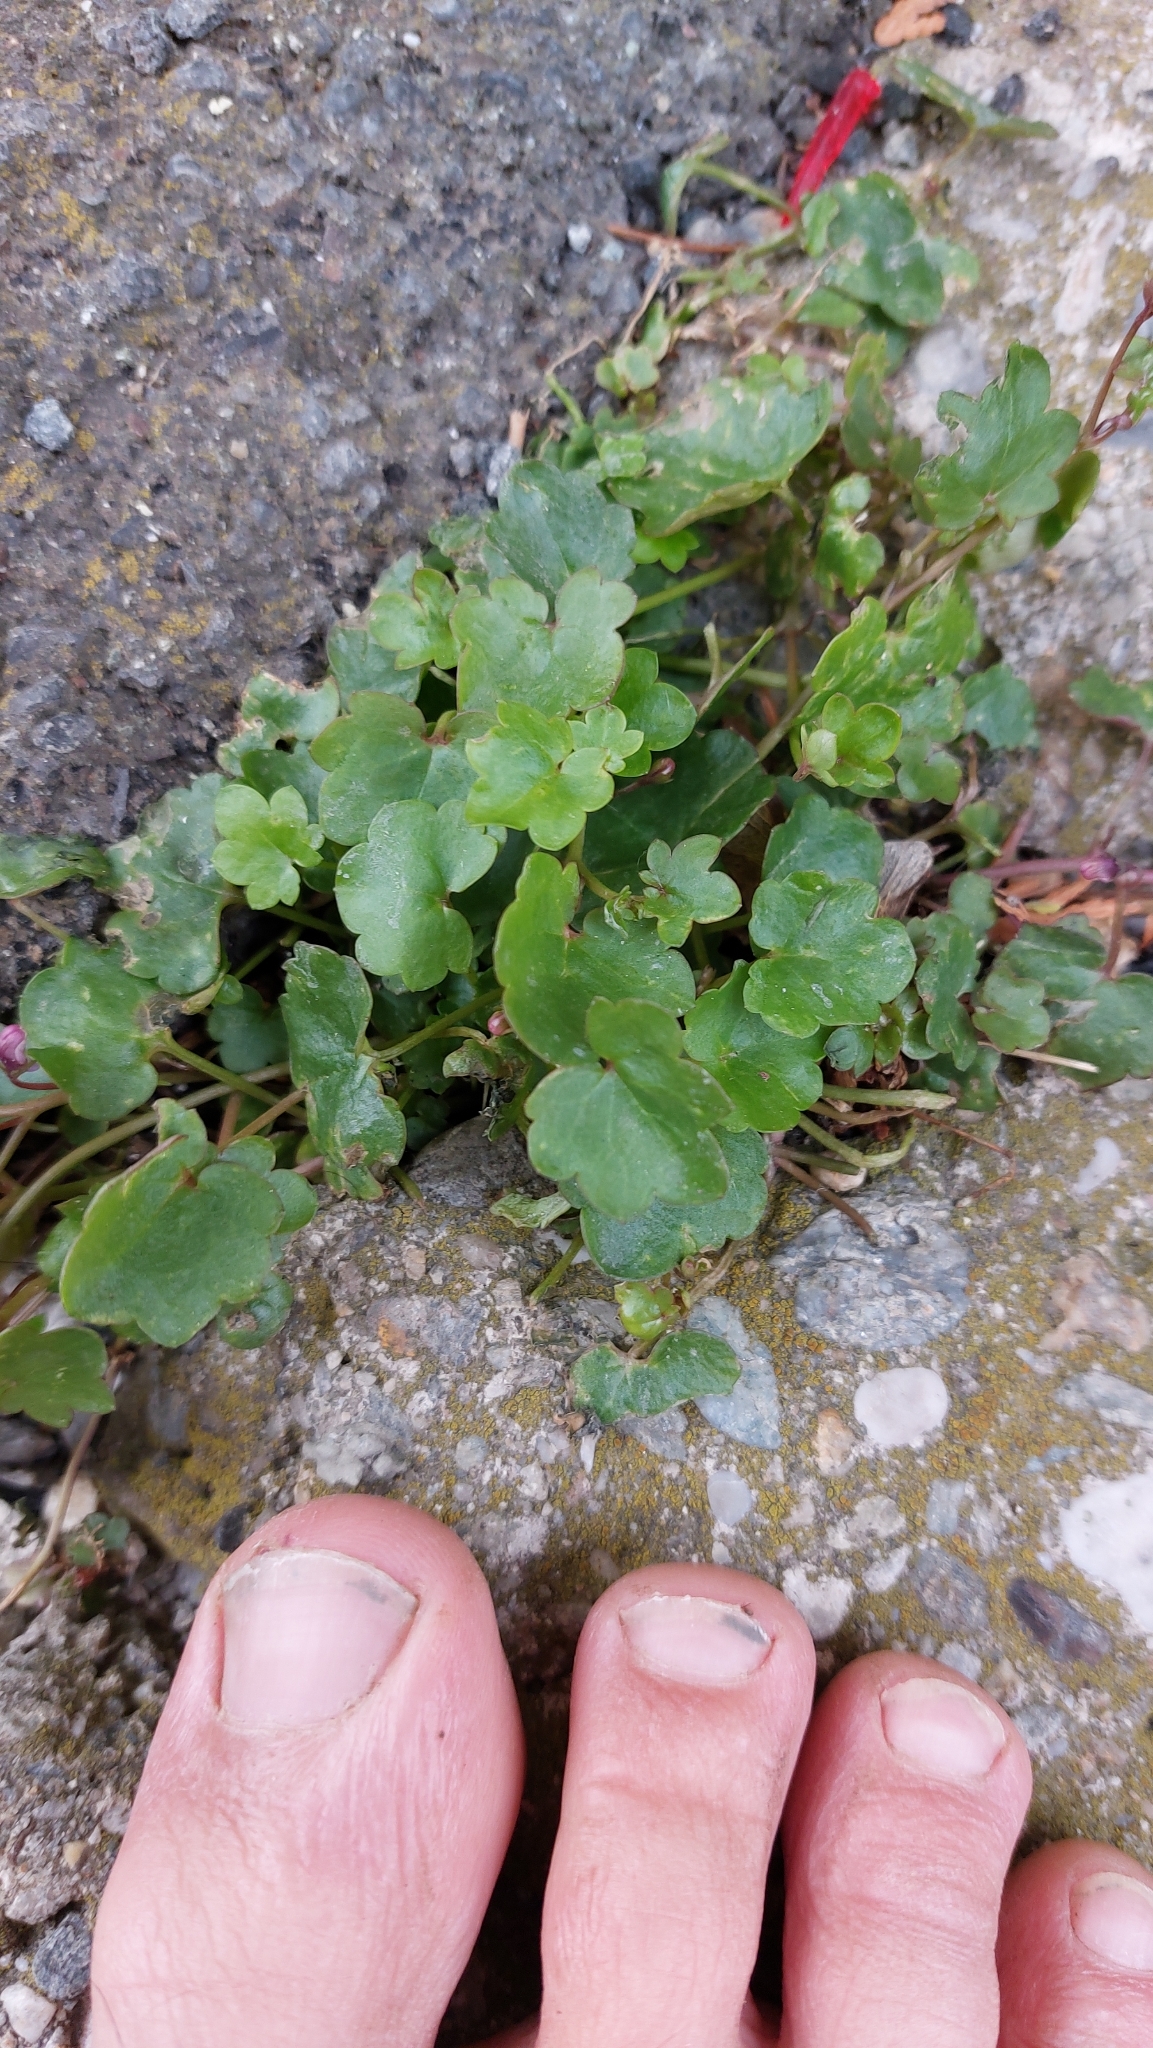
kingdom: Plantae
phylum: Tracheophyta
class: Magnoliopsida
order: Lamiales
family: Plantaginaceae
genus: Cymbalaria
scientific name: Cymbalaria muralis
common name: Ivy-leaved toadflax
